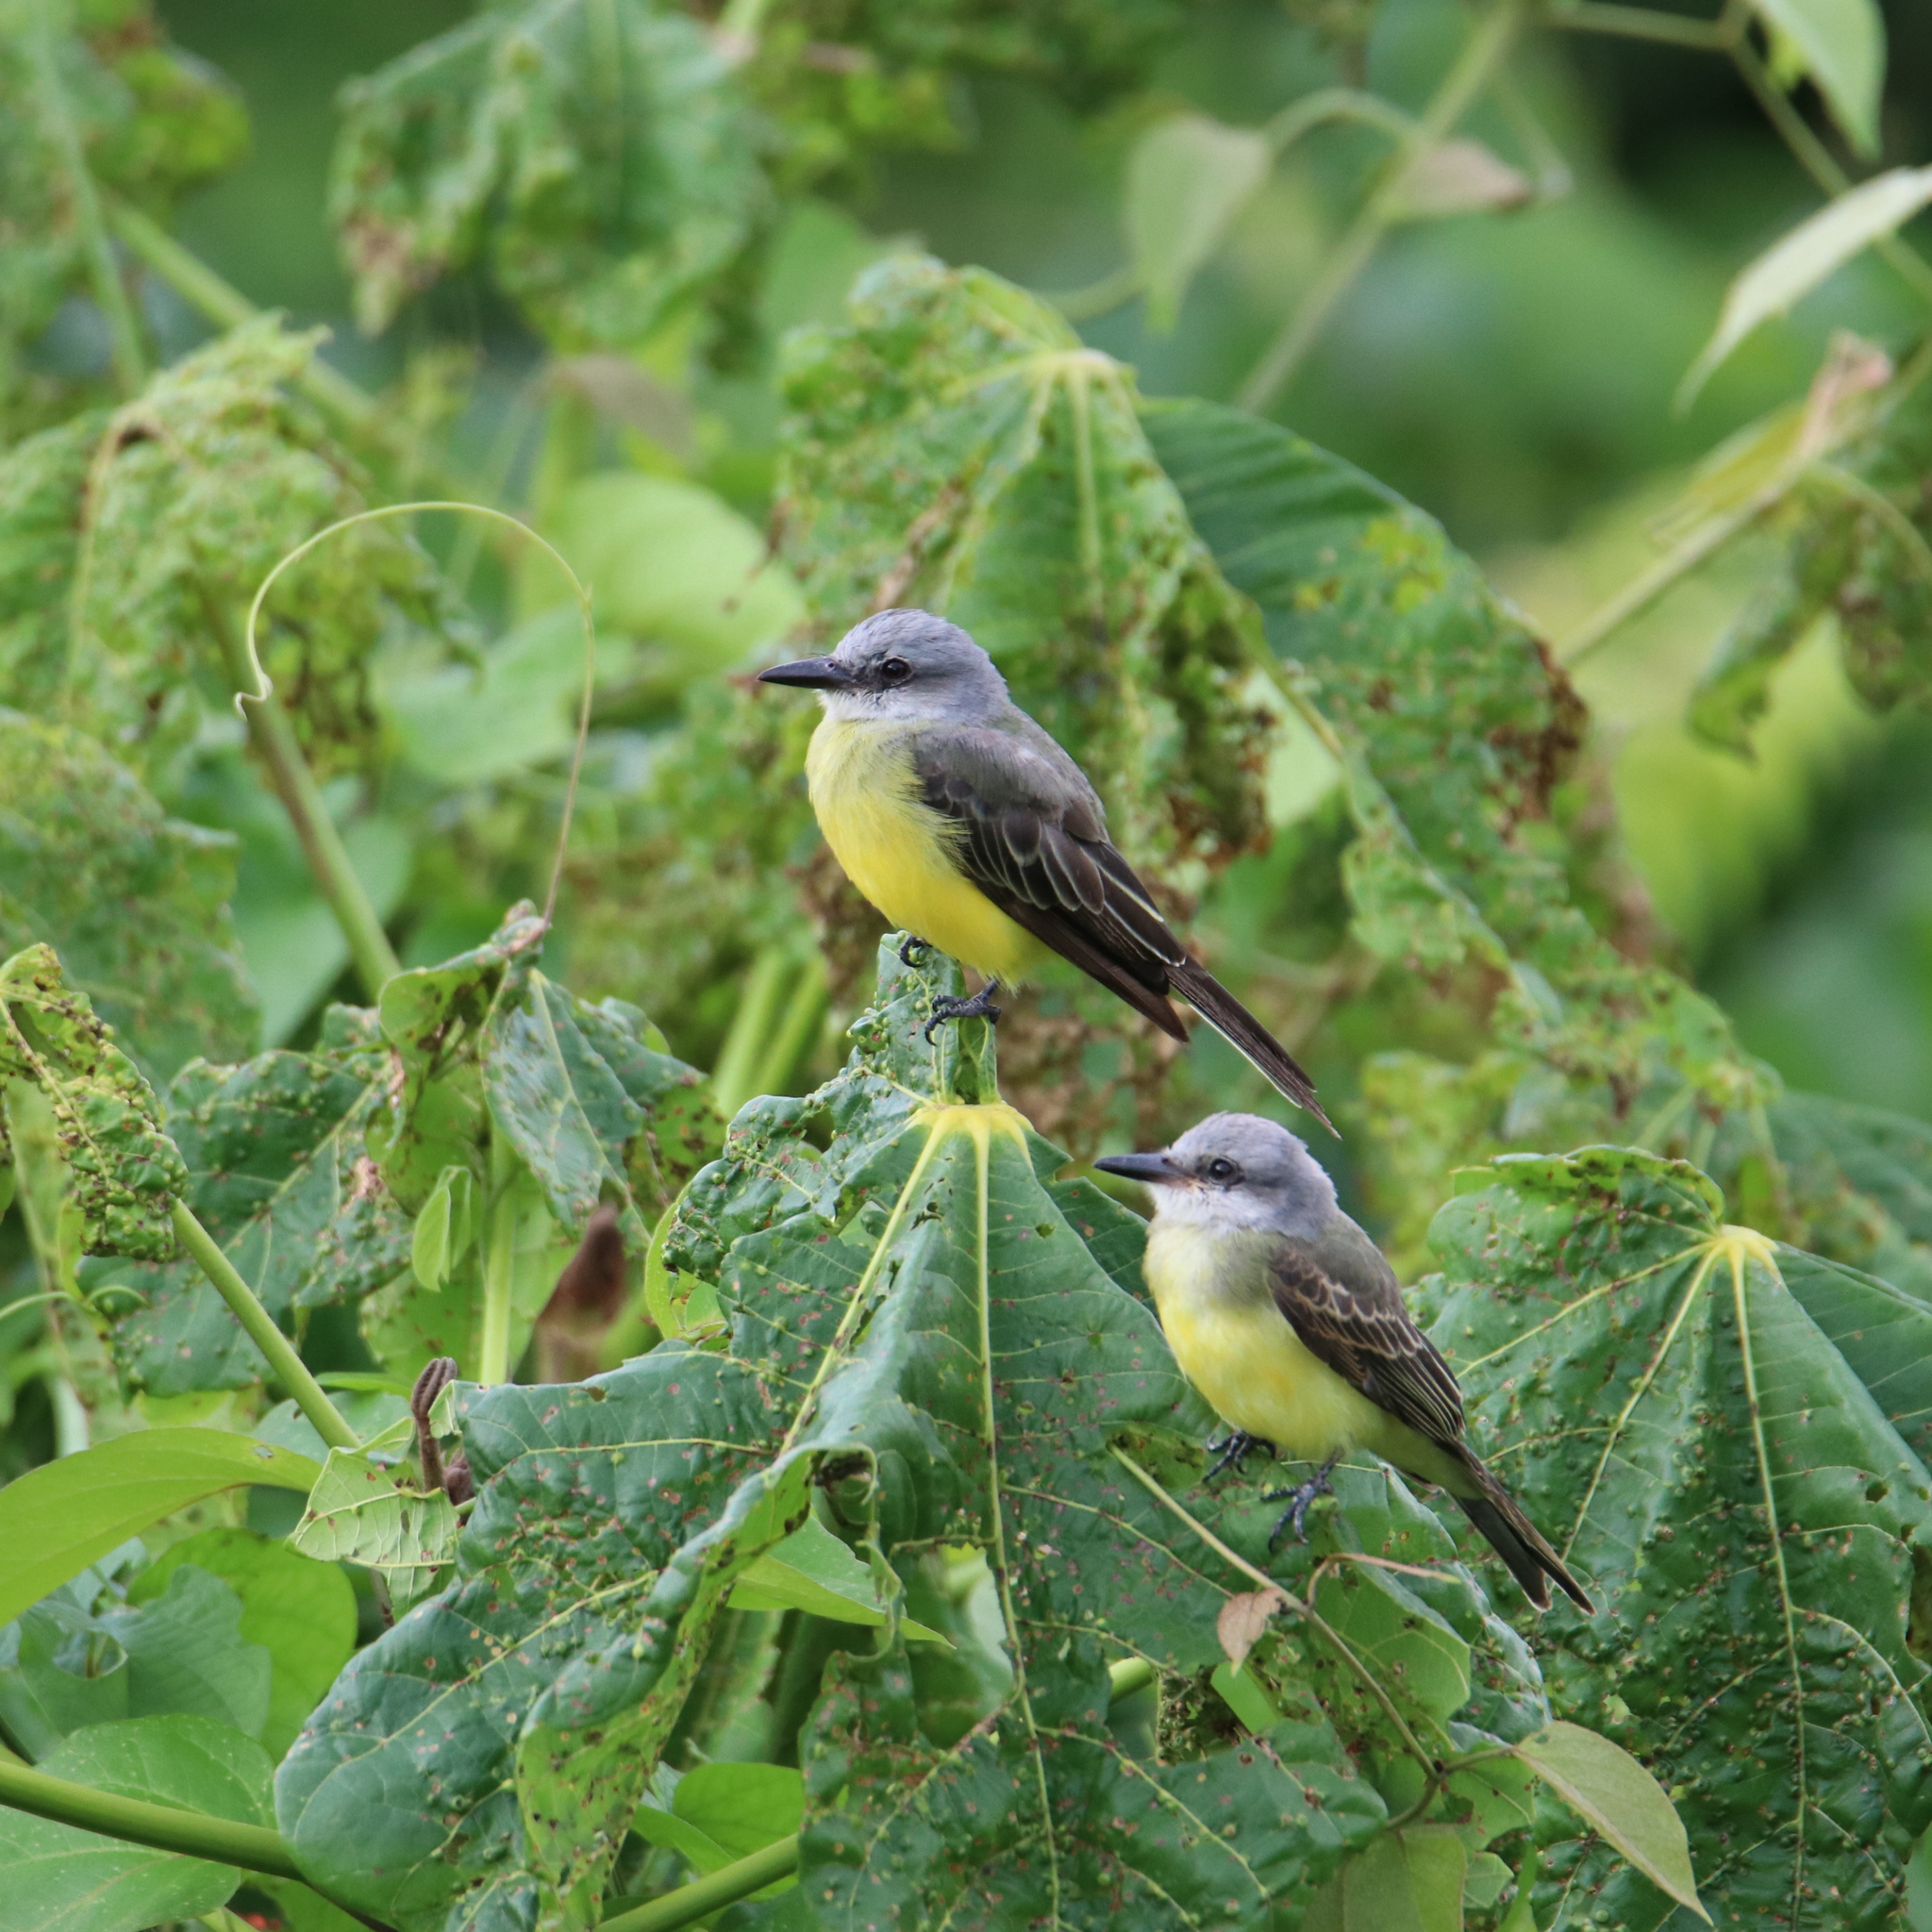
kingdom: Animalia
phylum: Chordata
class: Aves
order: Passeriformes
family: Tyrannidae
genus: Tyrannus
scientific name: Tyrannus melancholicus
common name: Tropical kingbird
